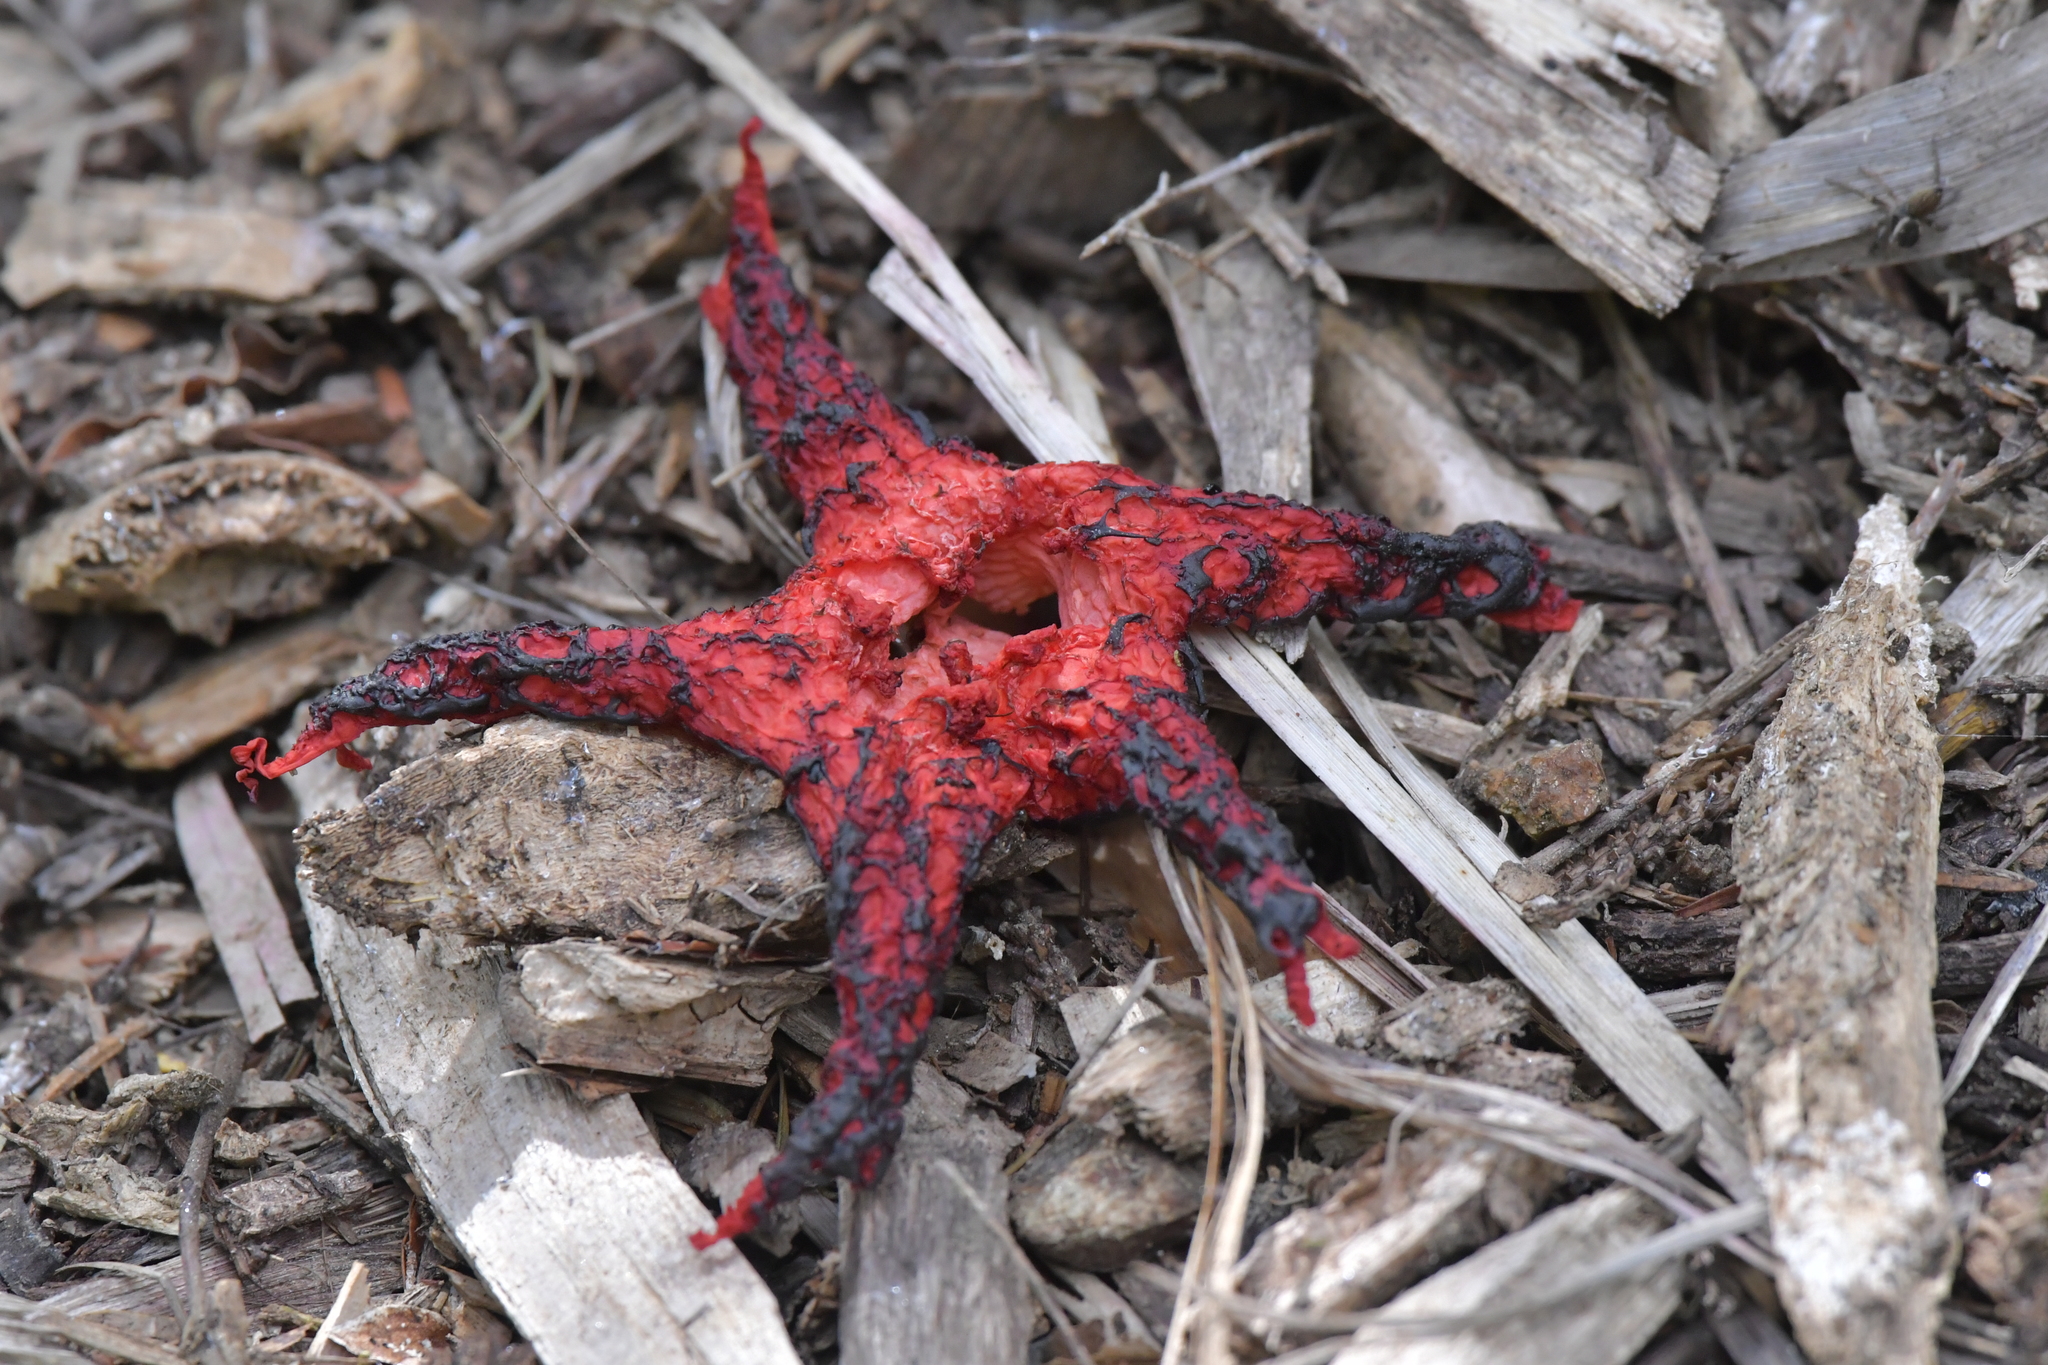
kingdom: Fungi
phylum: Basidiomycota
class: Agaricomycetes
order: Phallales
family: Phallaceae
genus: Clathrus
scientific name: Clathrus archeri
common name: Devil's fingers
